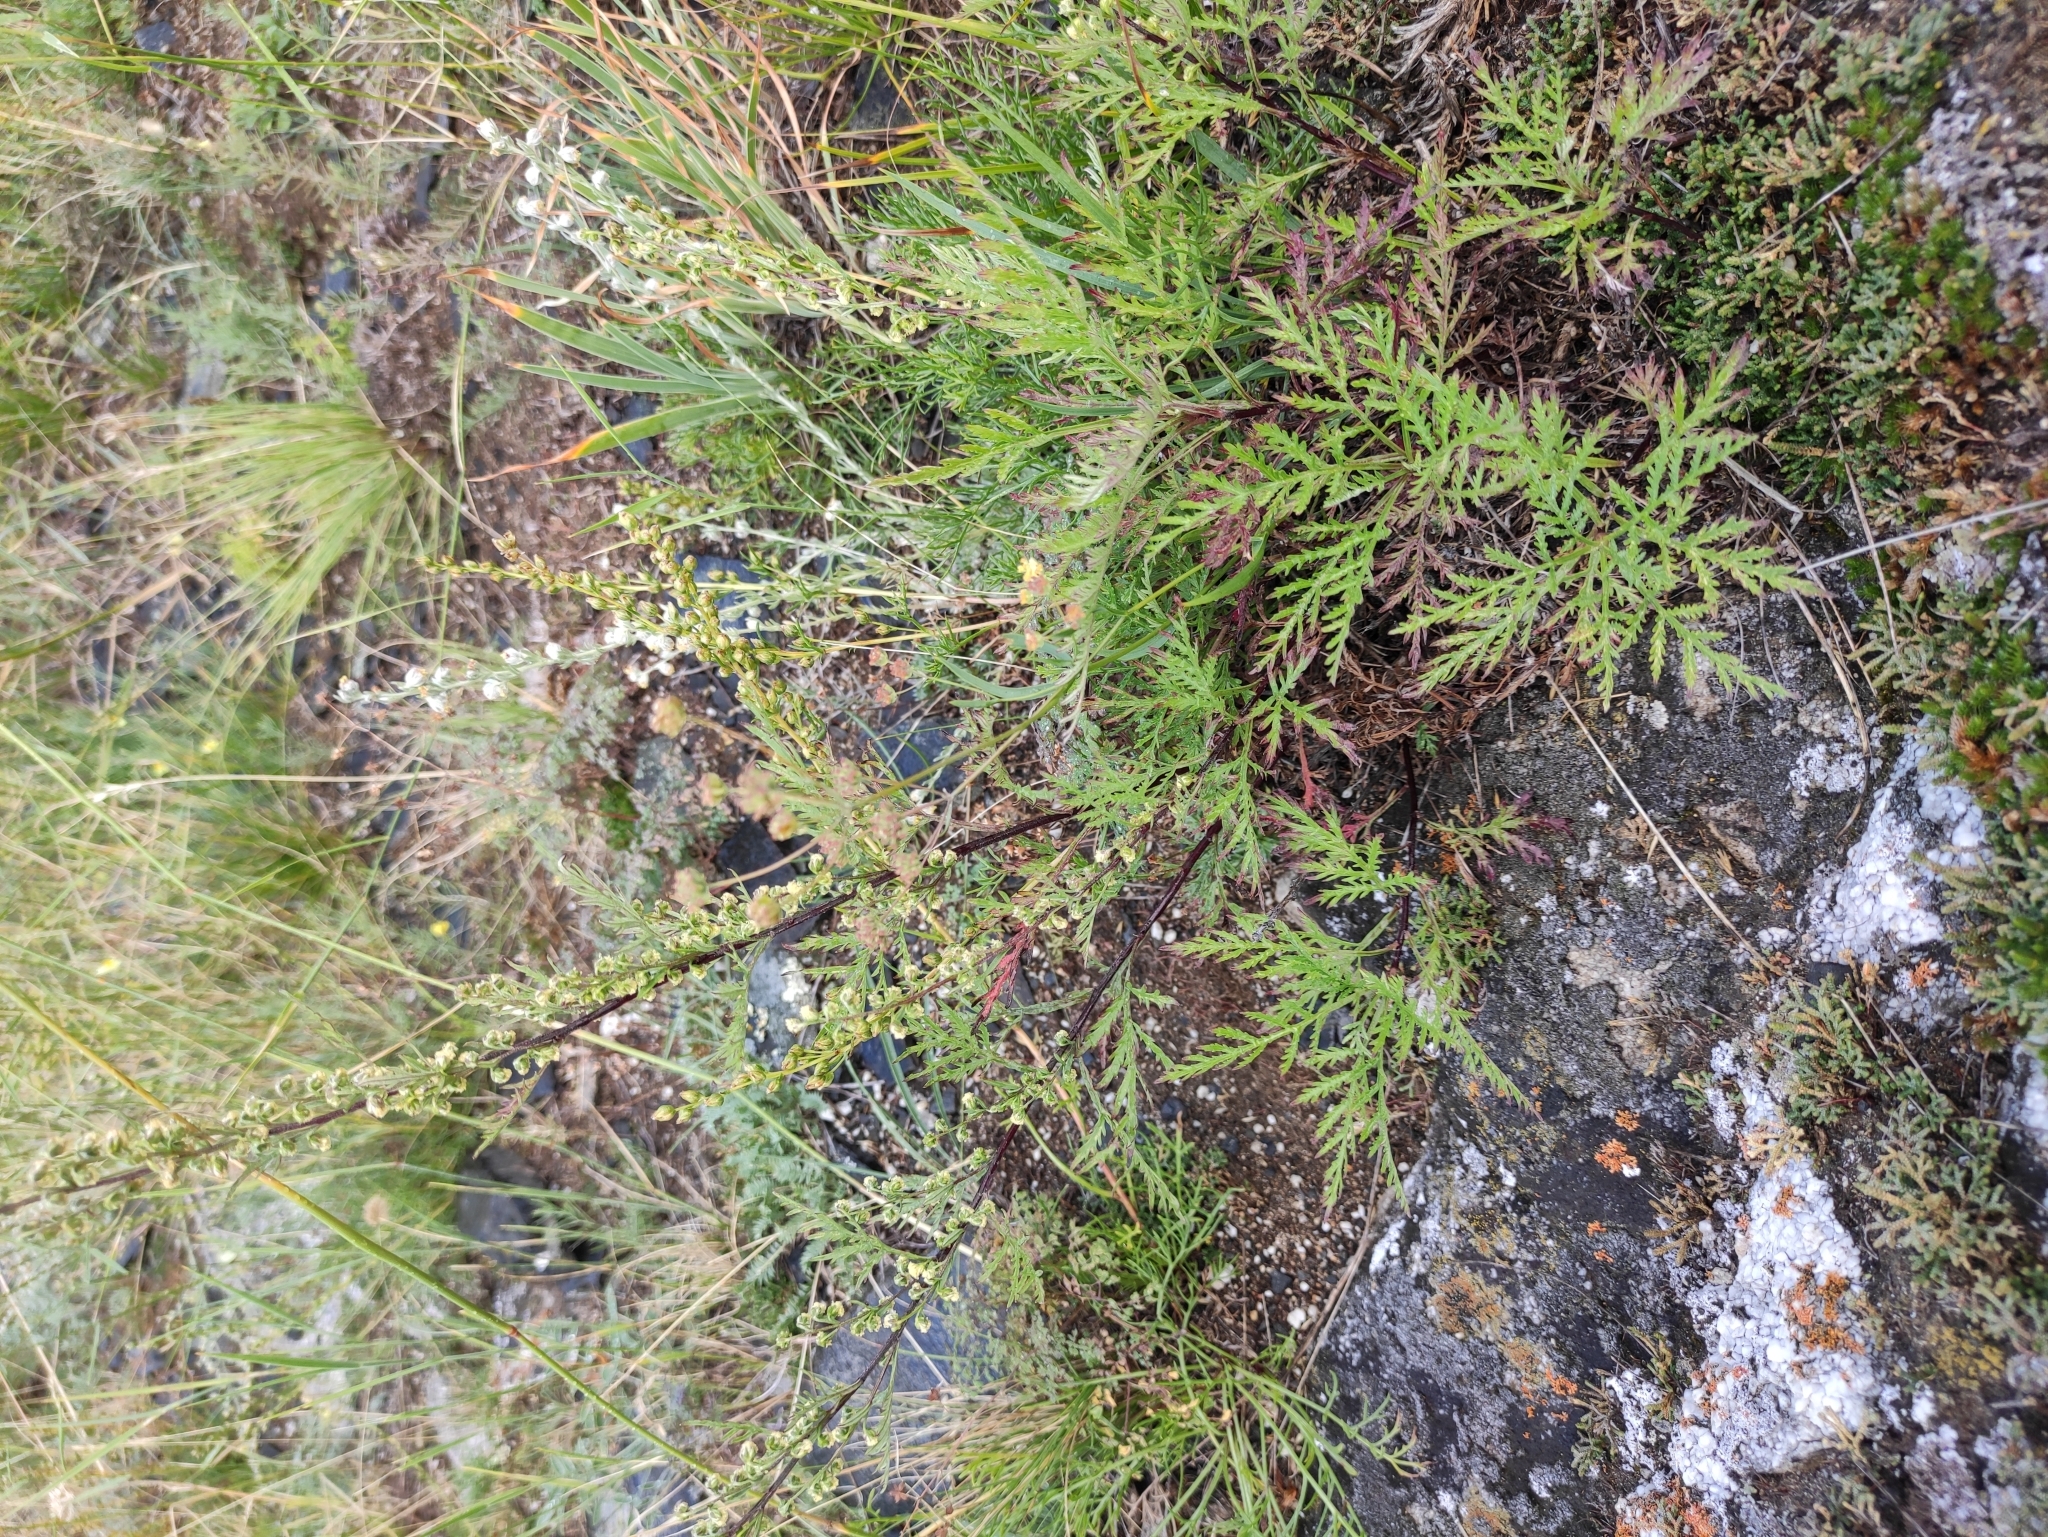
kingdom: Plantae
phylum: Tracheophyta
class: Magnoliopsida
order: Asterales
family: Asteraceae
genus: Artemisia
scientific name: Artemisia gmelinii
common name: Gmelin's wormwood
